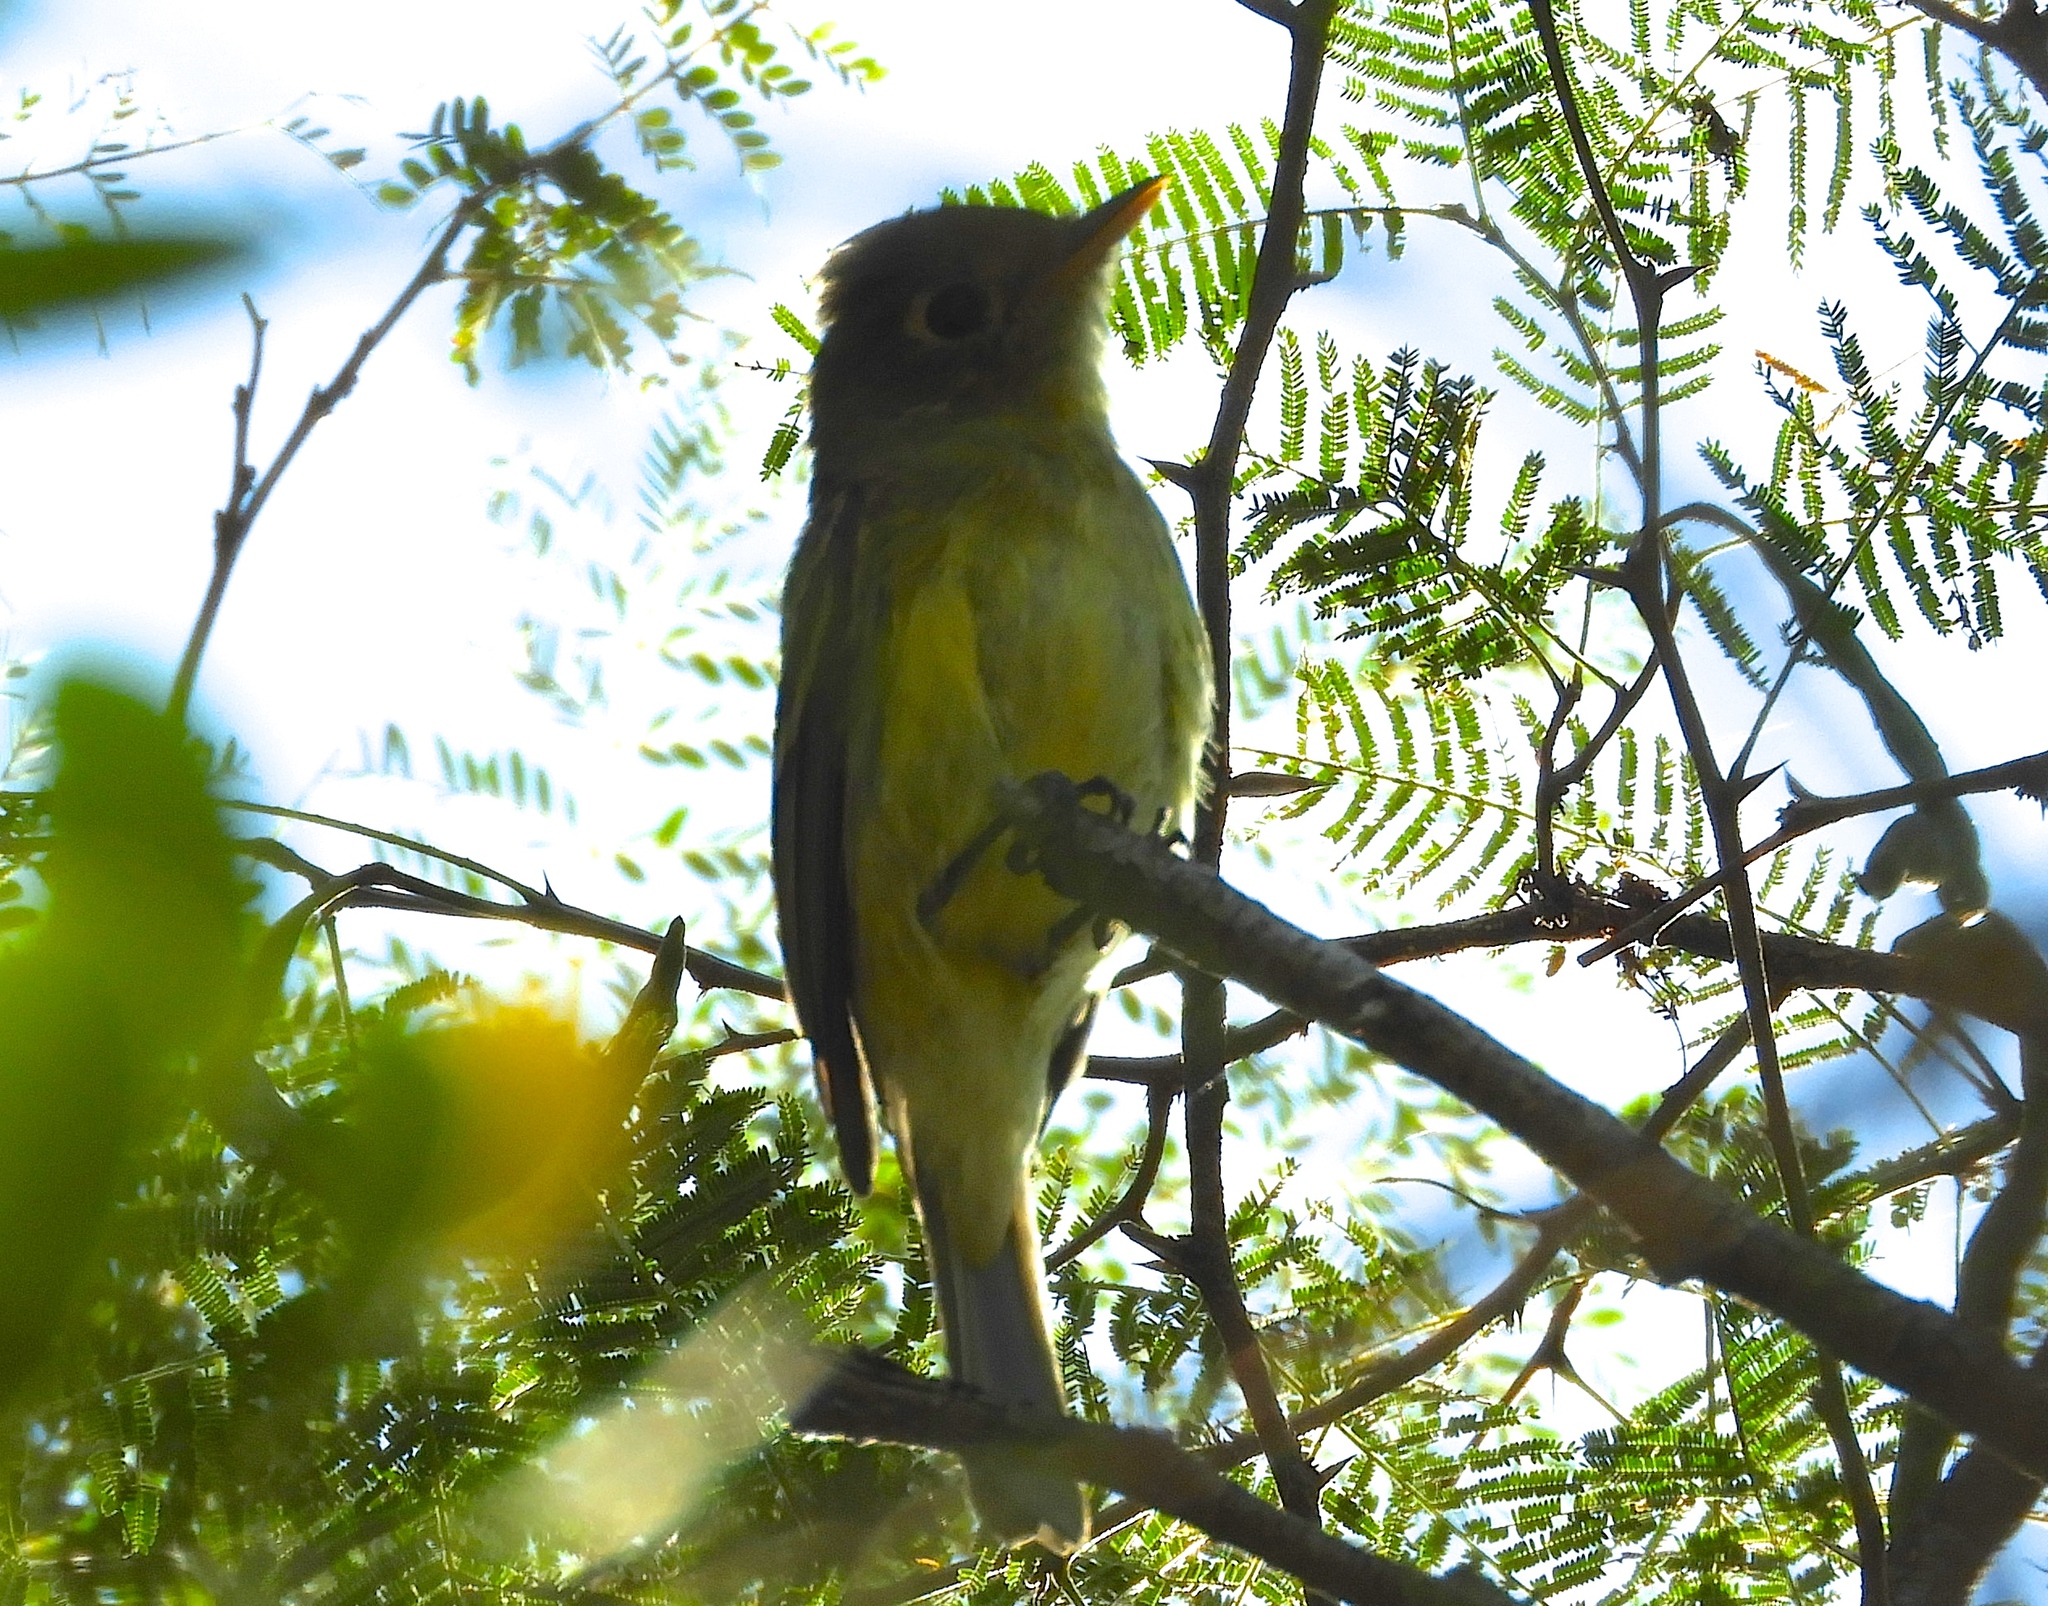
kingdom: Animalia
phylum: Chordata
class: Aves
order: Passeriformes
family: Tyrannidae
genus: Empidonax
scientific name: Empidonax
